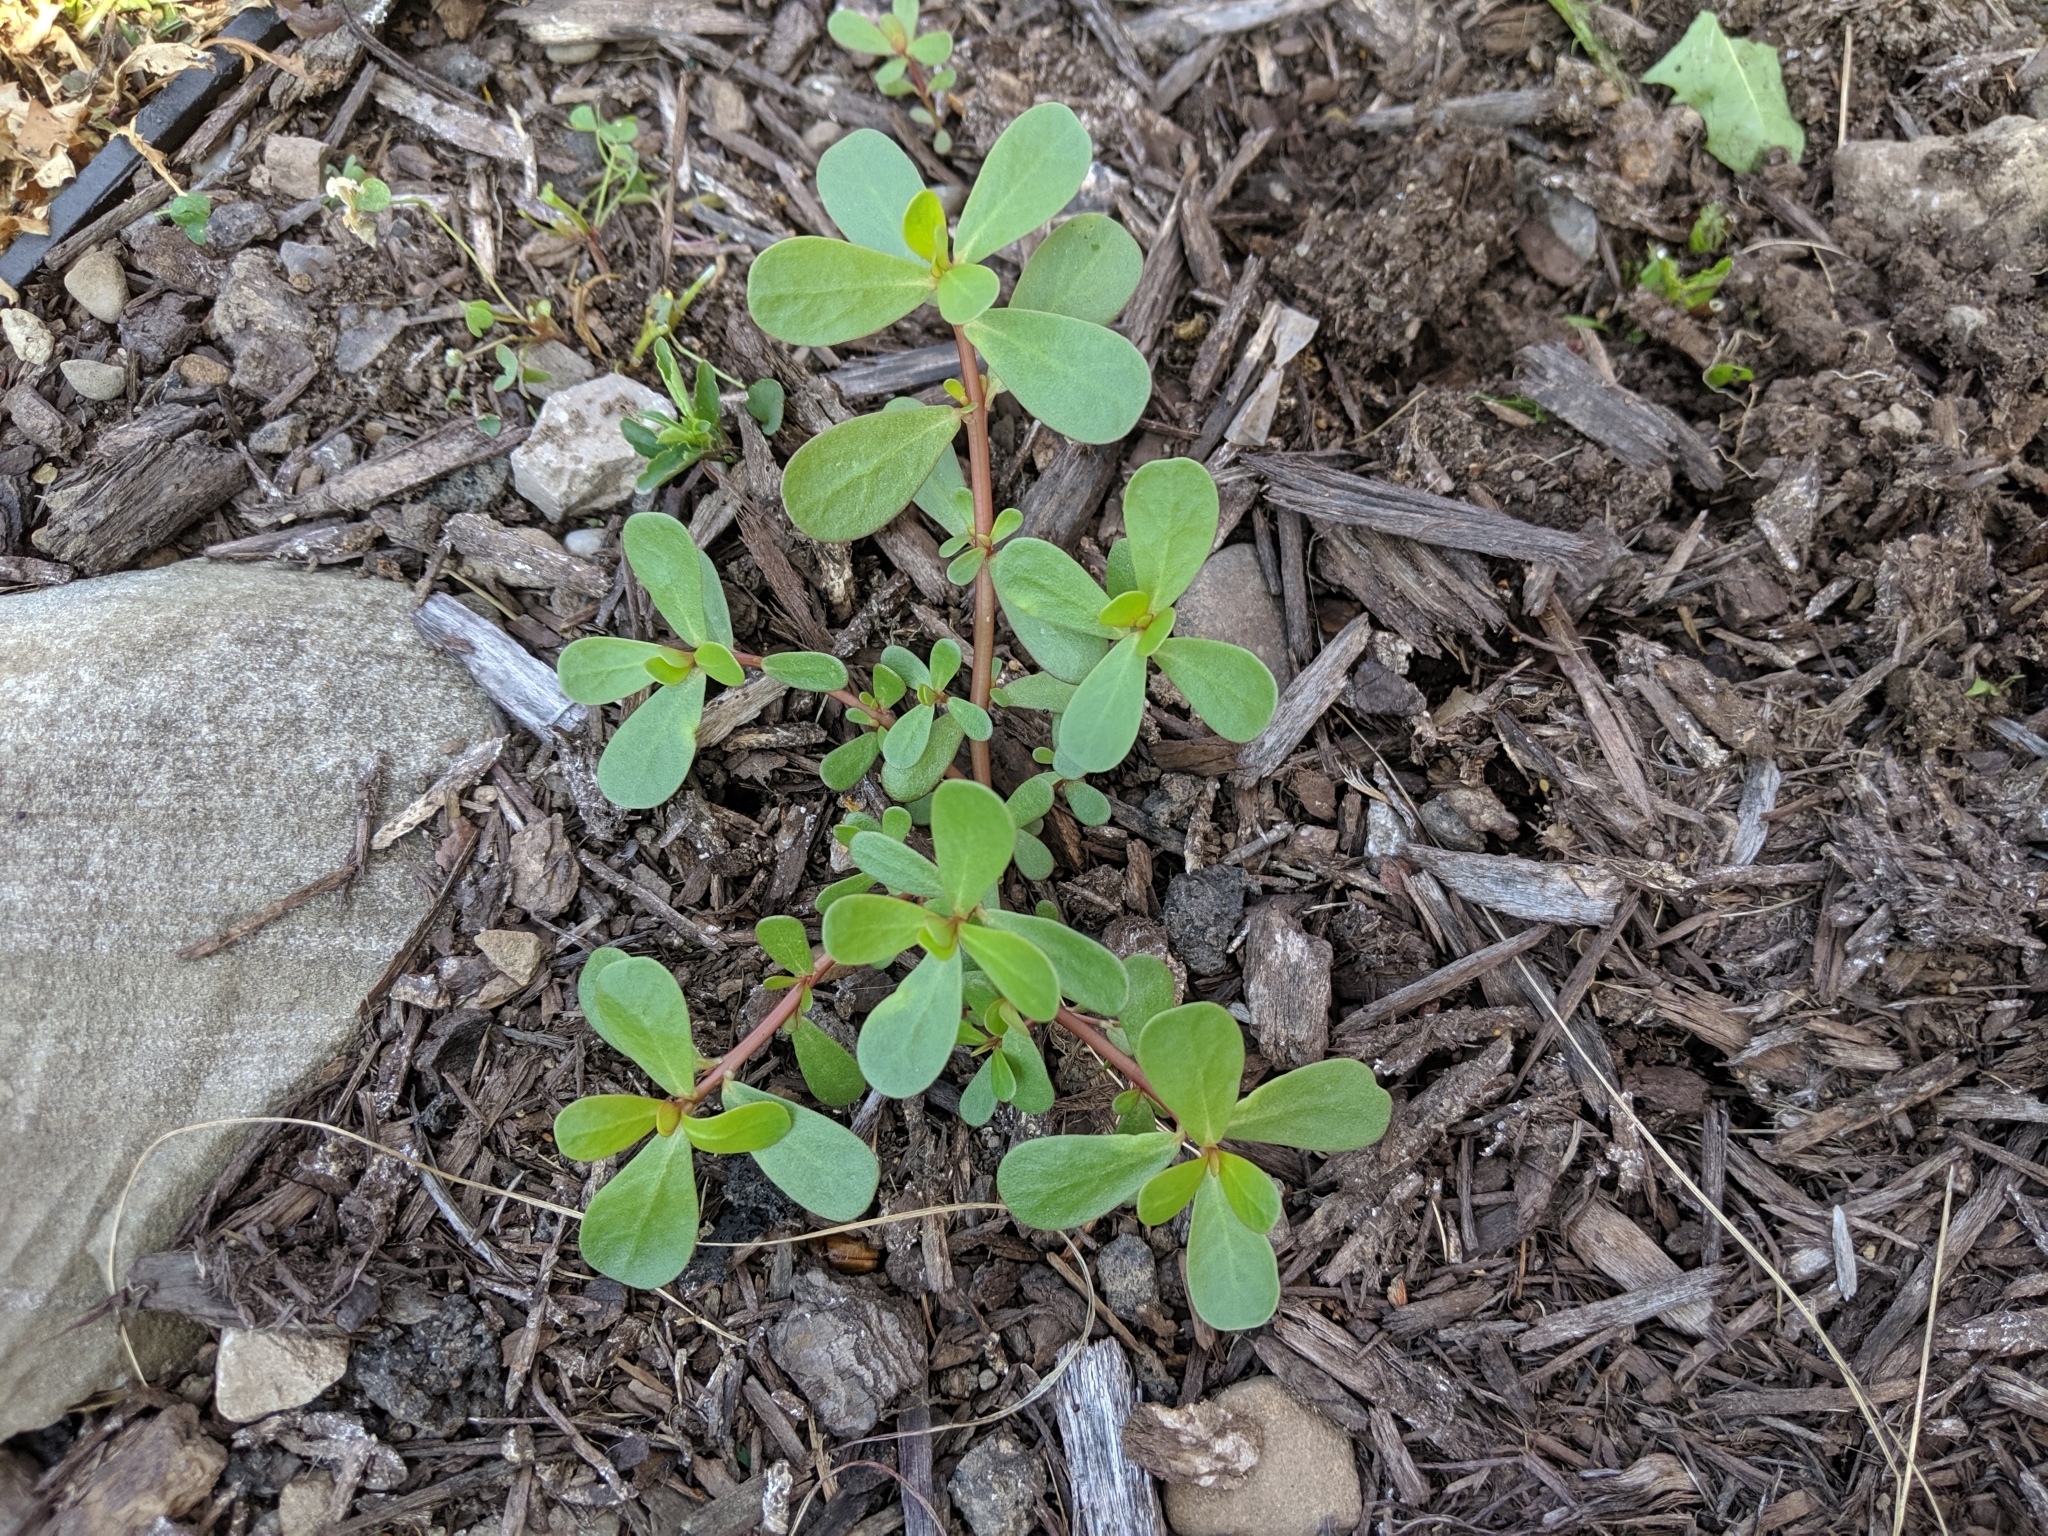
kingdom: Plantae
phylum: Tracheophyta
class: Magnoliopsida
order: Caryophyllales
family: Portulacaceae
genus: Portulaca
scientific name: Portulaca oleracea
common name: Common purslane
